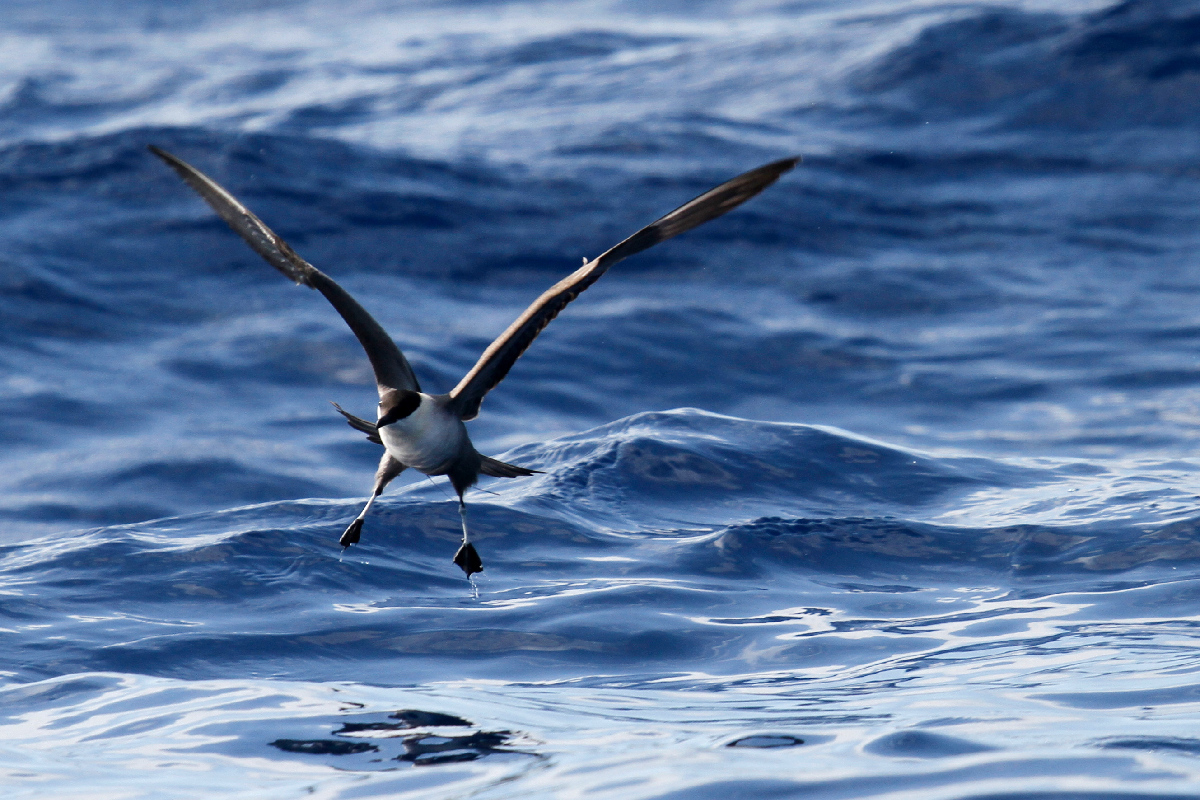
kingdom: Animalia
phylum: Chordata
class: Aves
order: Charadriiformes
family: Stercorariidae
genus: Stercorarius
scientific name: Stercorarius longicaudus
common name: Long-tailed jaeger
